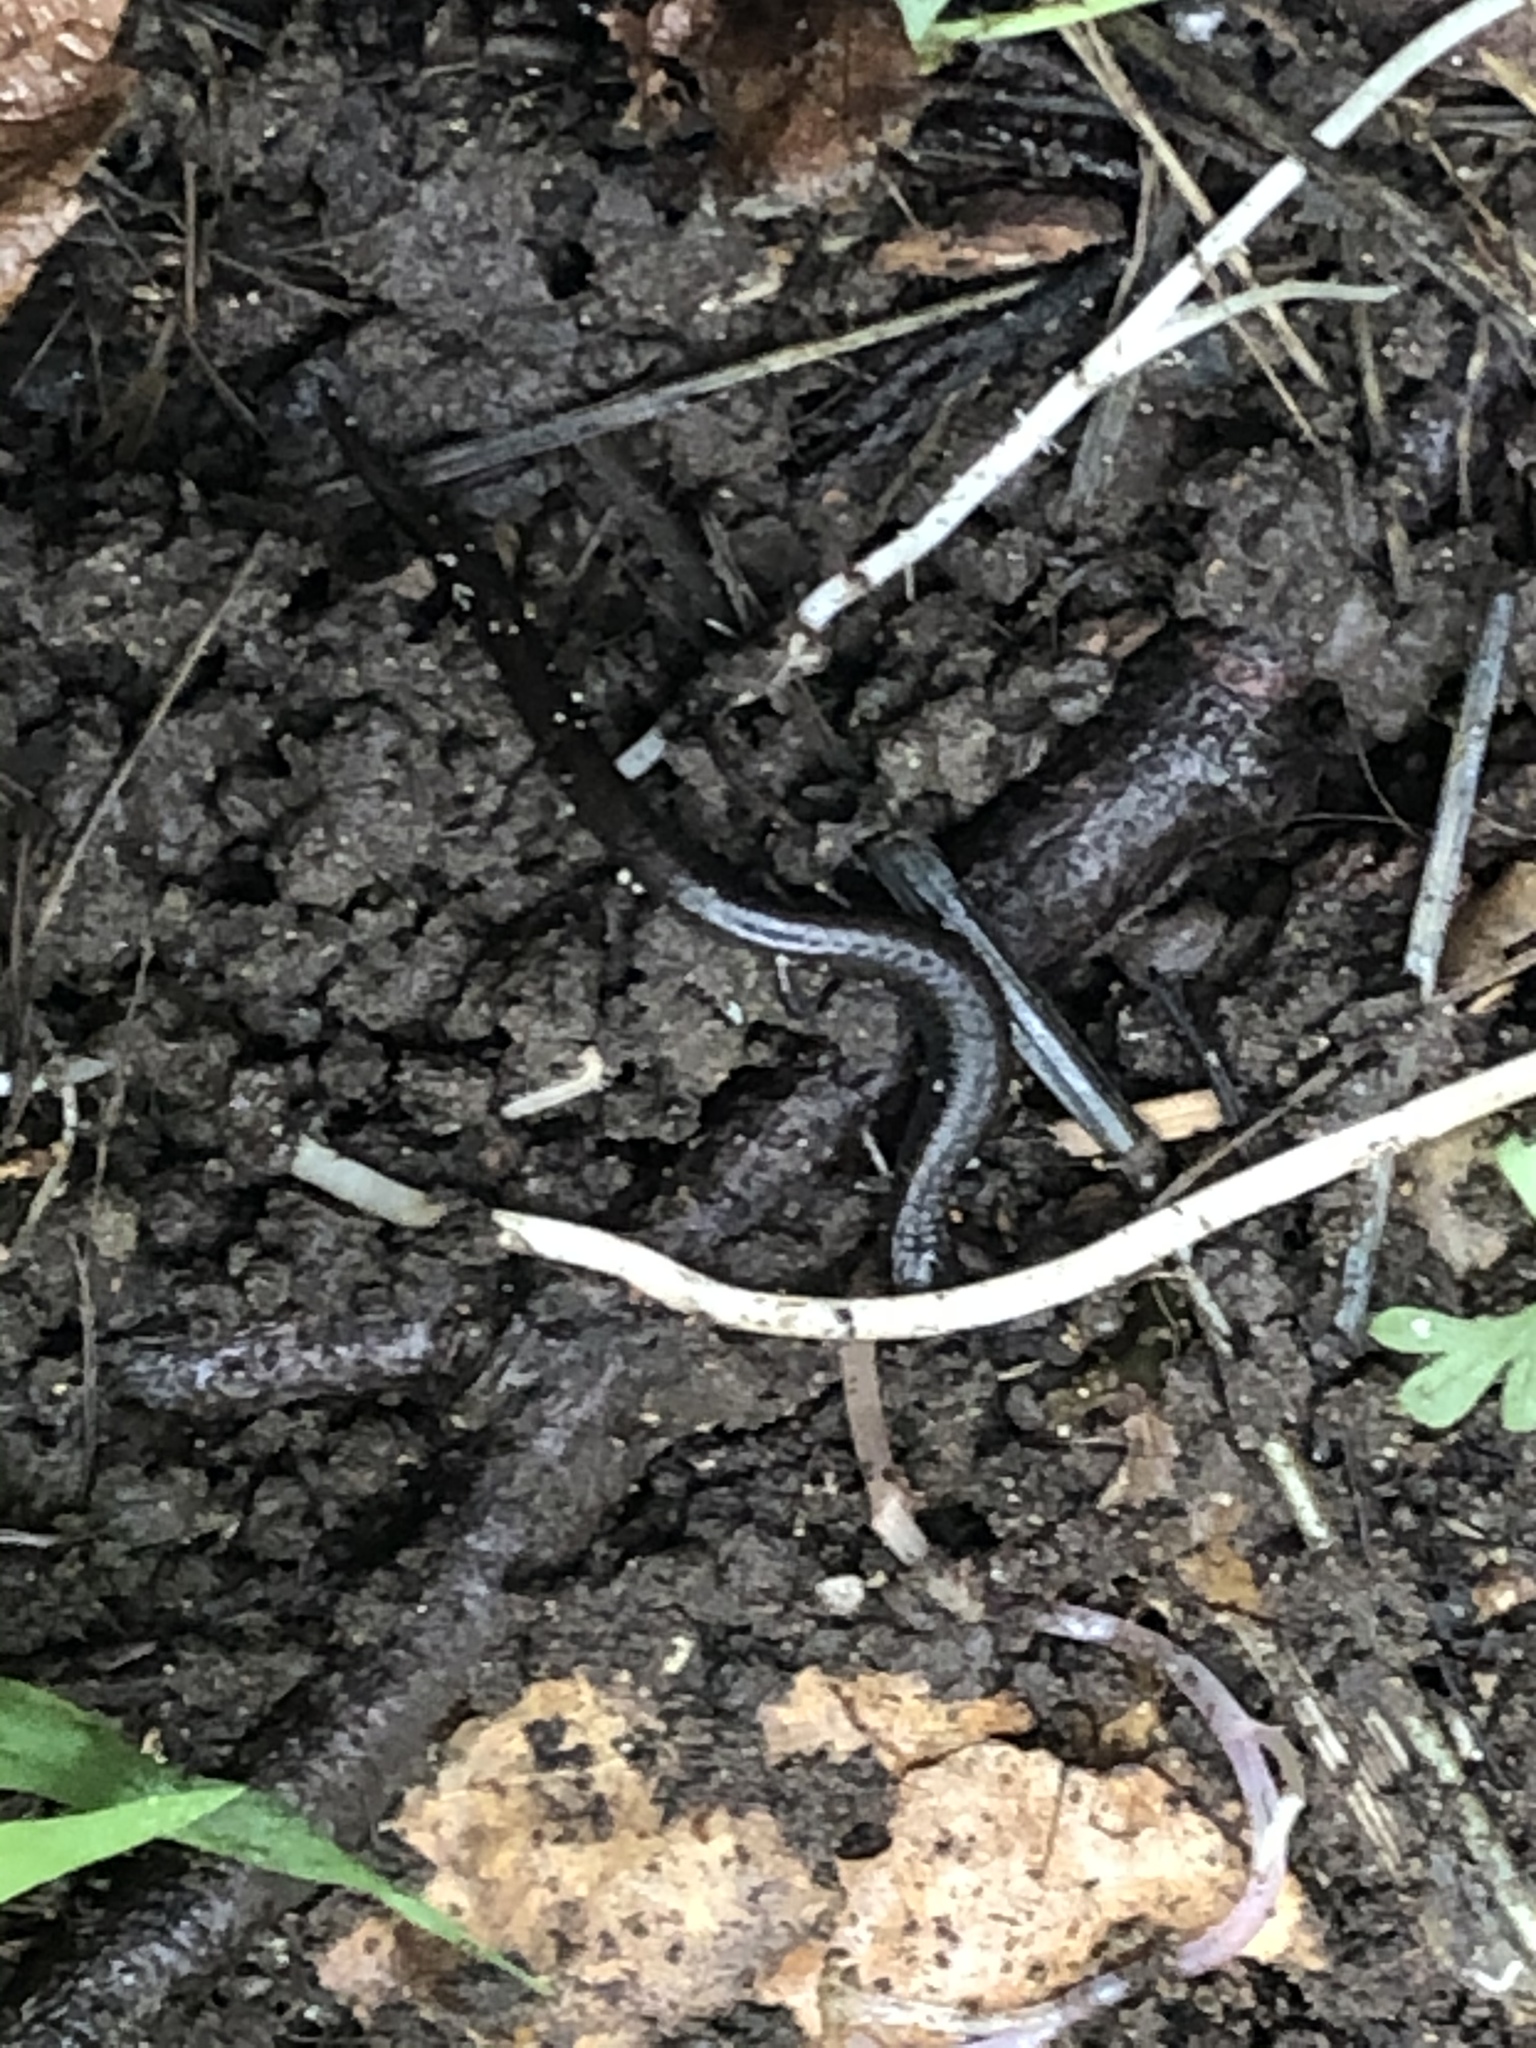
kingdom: Animalia
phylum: Chordata
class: Amphibia
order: Caudata
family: Plethodontidae
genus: Batrachoseps
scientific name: Batrachoseps attenuatus
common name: California slender salamander
